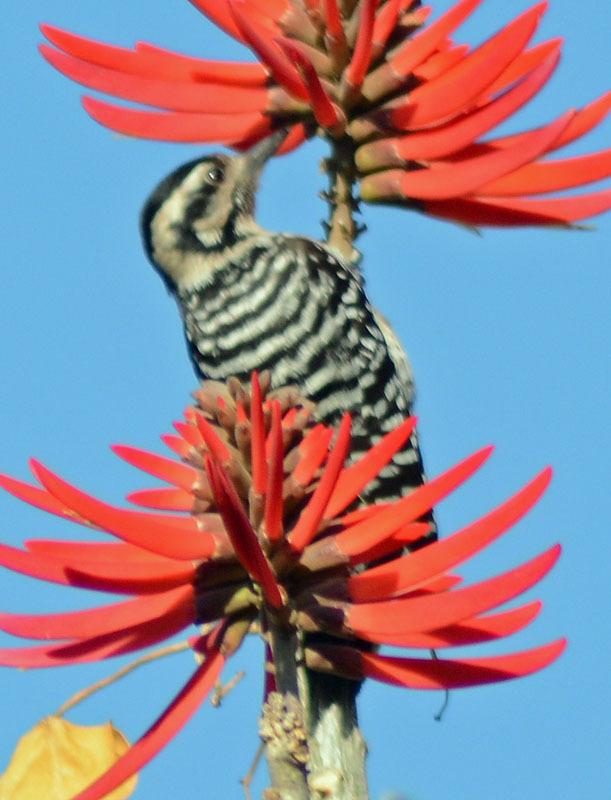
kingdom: Animalia
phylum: Chordata
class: Aves
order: Piciformes
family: Picidae
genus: Dryobates
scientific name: Dryobates scalaris
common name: Ladder-backed woodpecker
